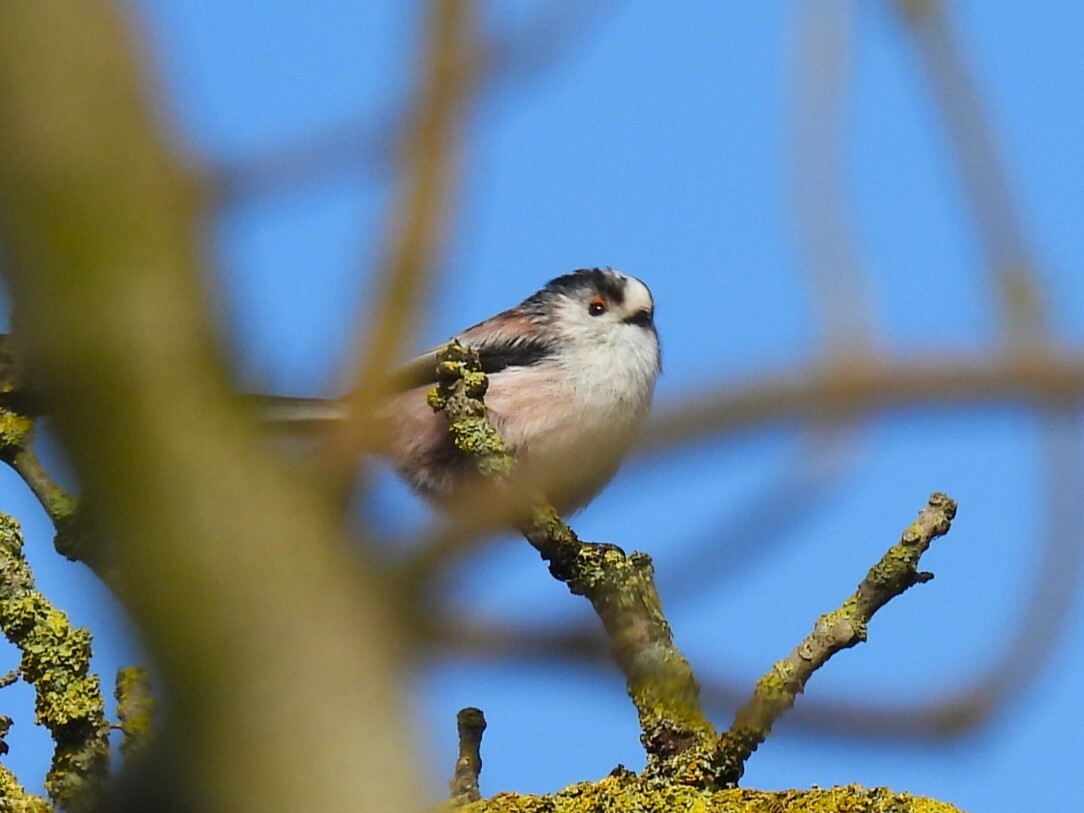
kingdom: Animalia
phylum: Chordata
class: Aves
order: Passeriformes
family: Aegithalidae
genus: Aegithalos
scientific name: Aegithalos caudatus
